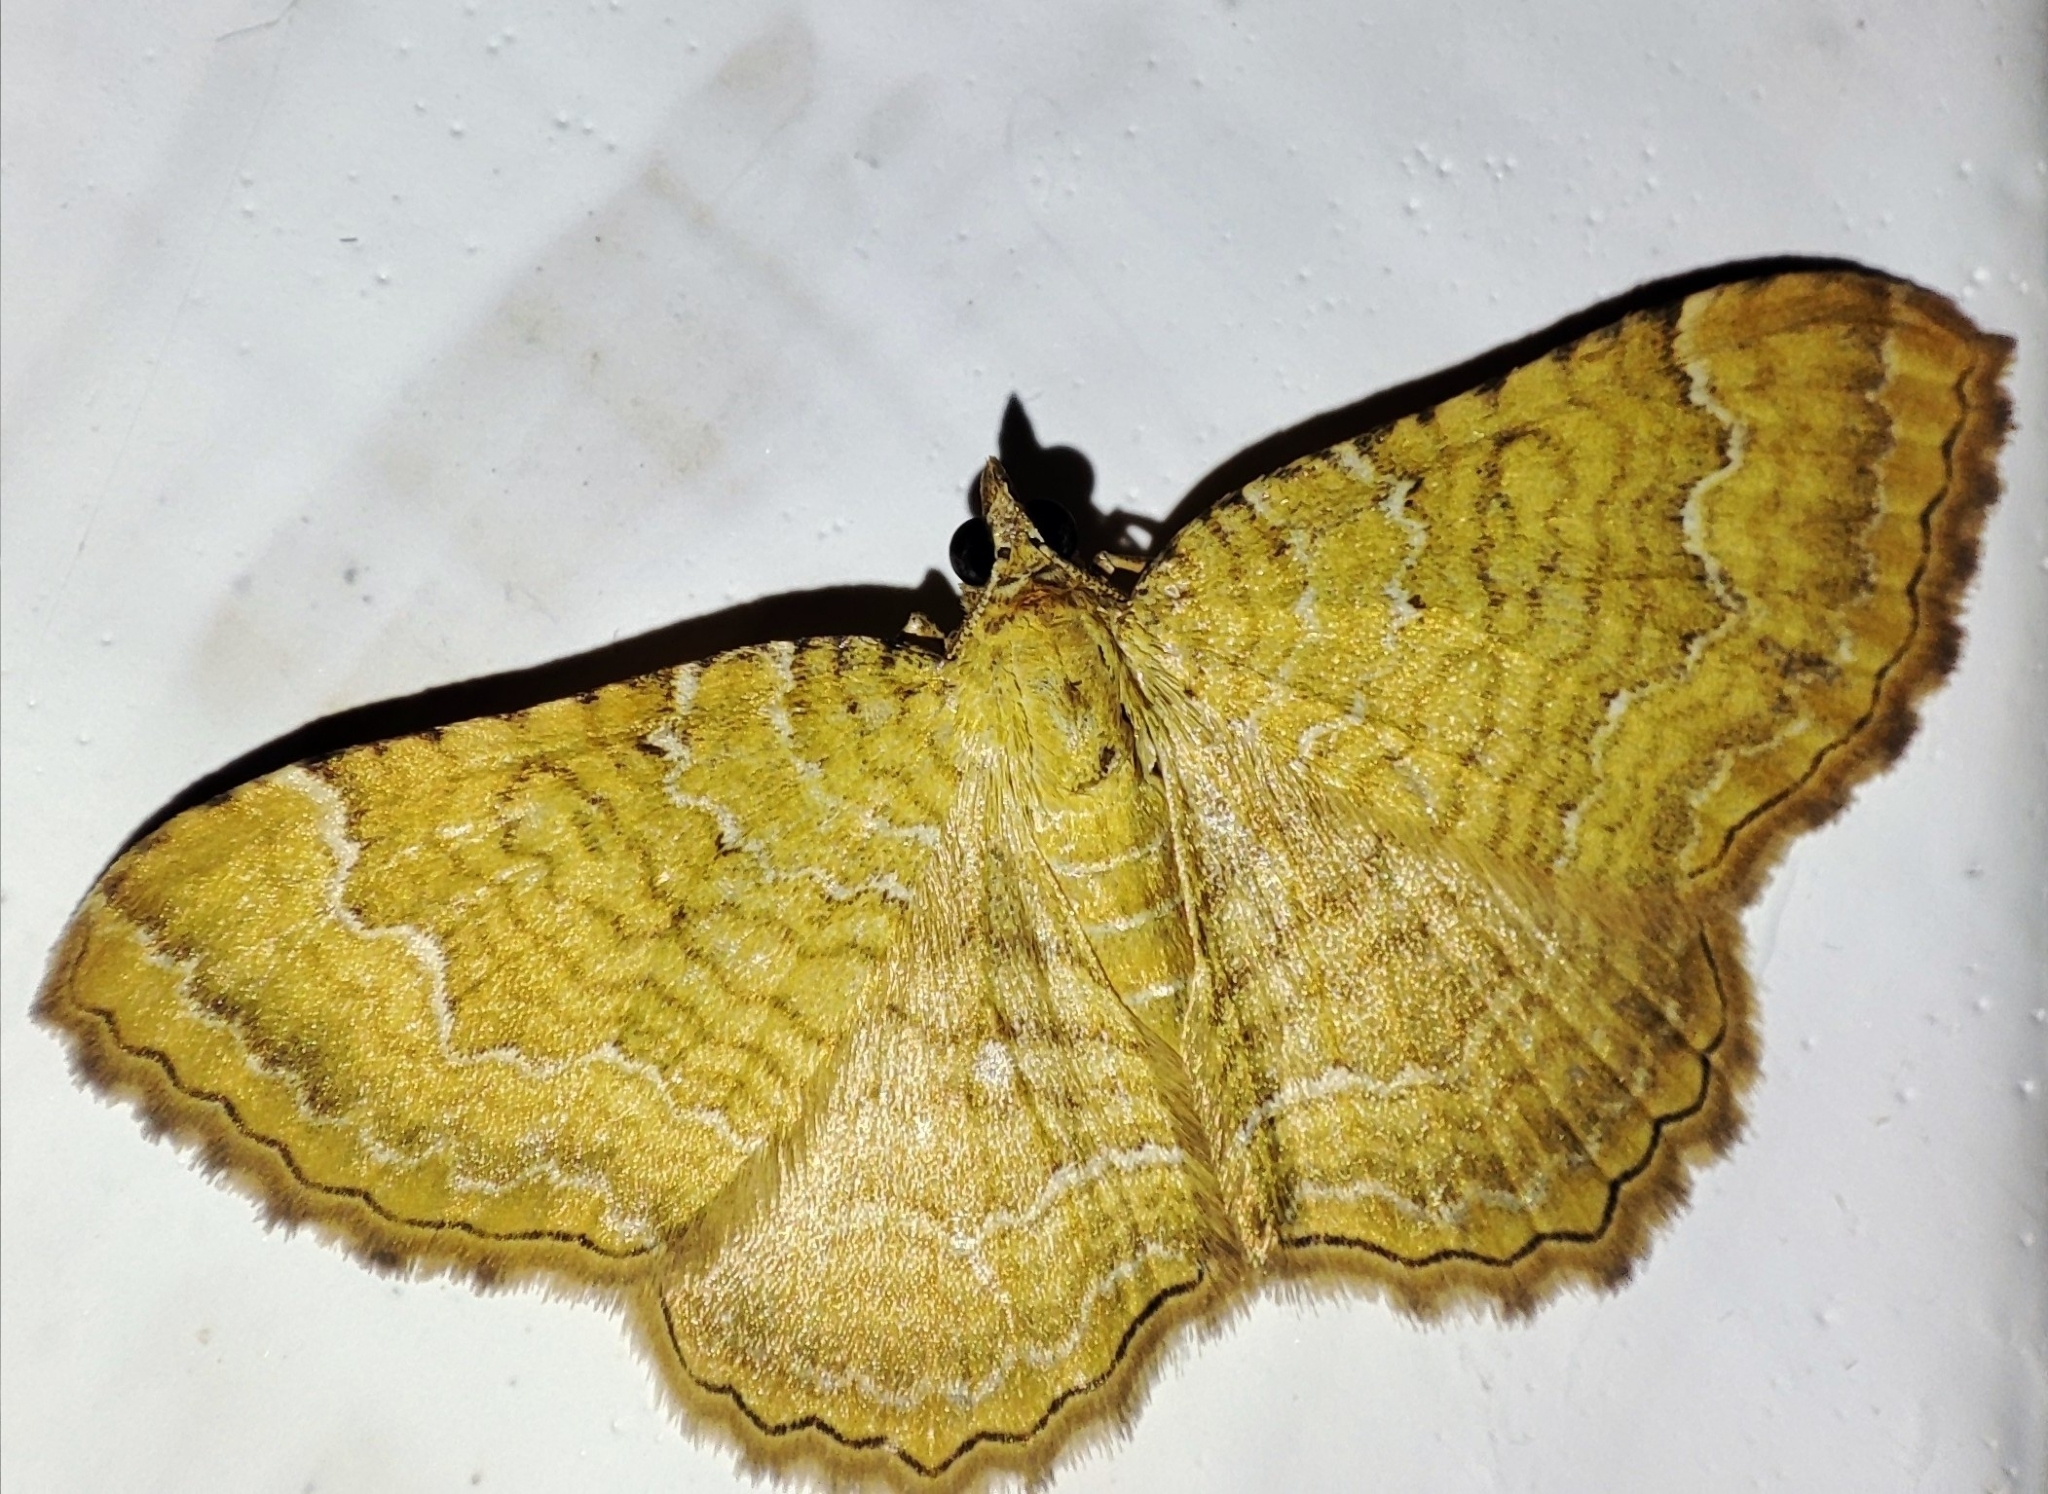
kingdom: Animalia
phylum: Arthropoda
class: Insecta
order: Lepidoptera
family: Geometridae
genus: Camptogramma
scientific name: Camptogramma bilineata
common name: Yellow shell
